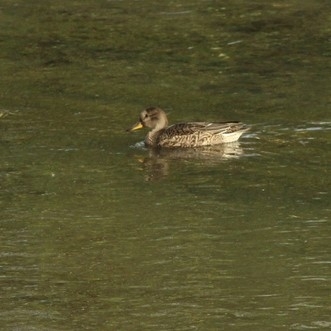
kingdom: Animalia
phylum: Chordata
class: Aves
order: Anseriformes
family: Anatidae
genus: Anas
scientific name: Anas crecca
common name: Eurasian teal
